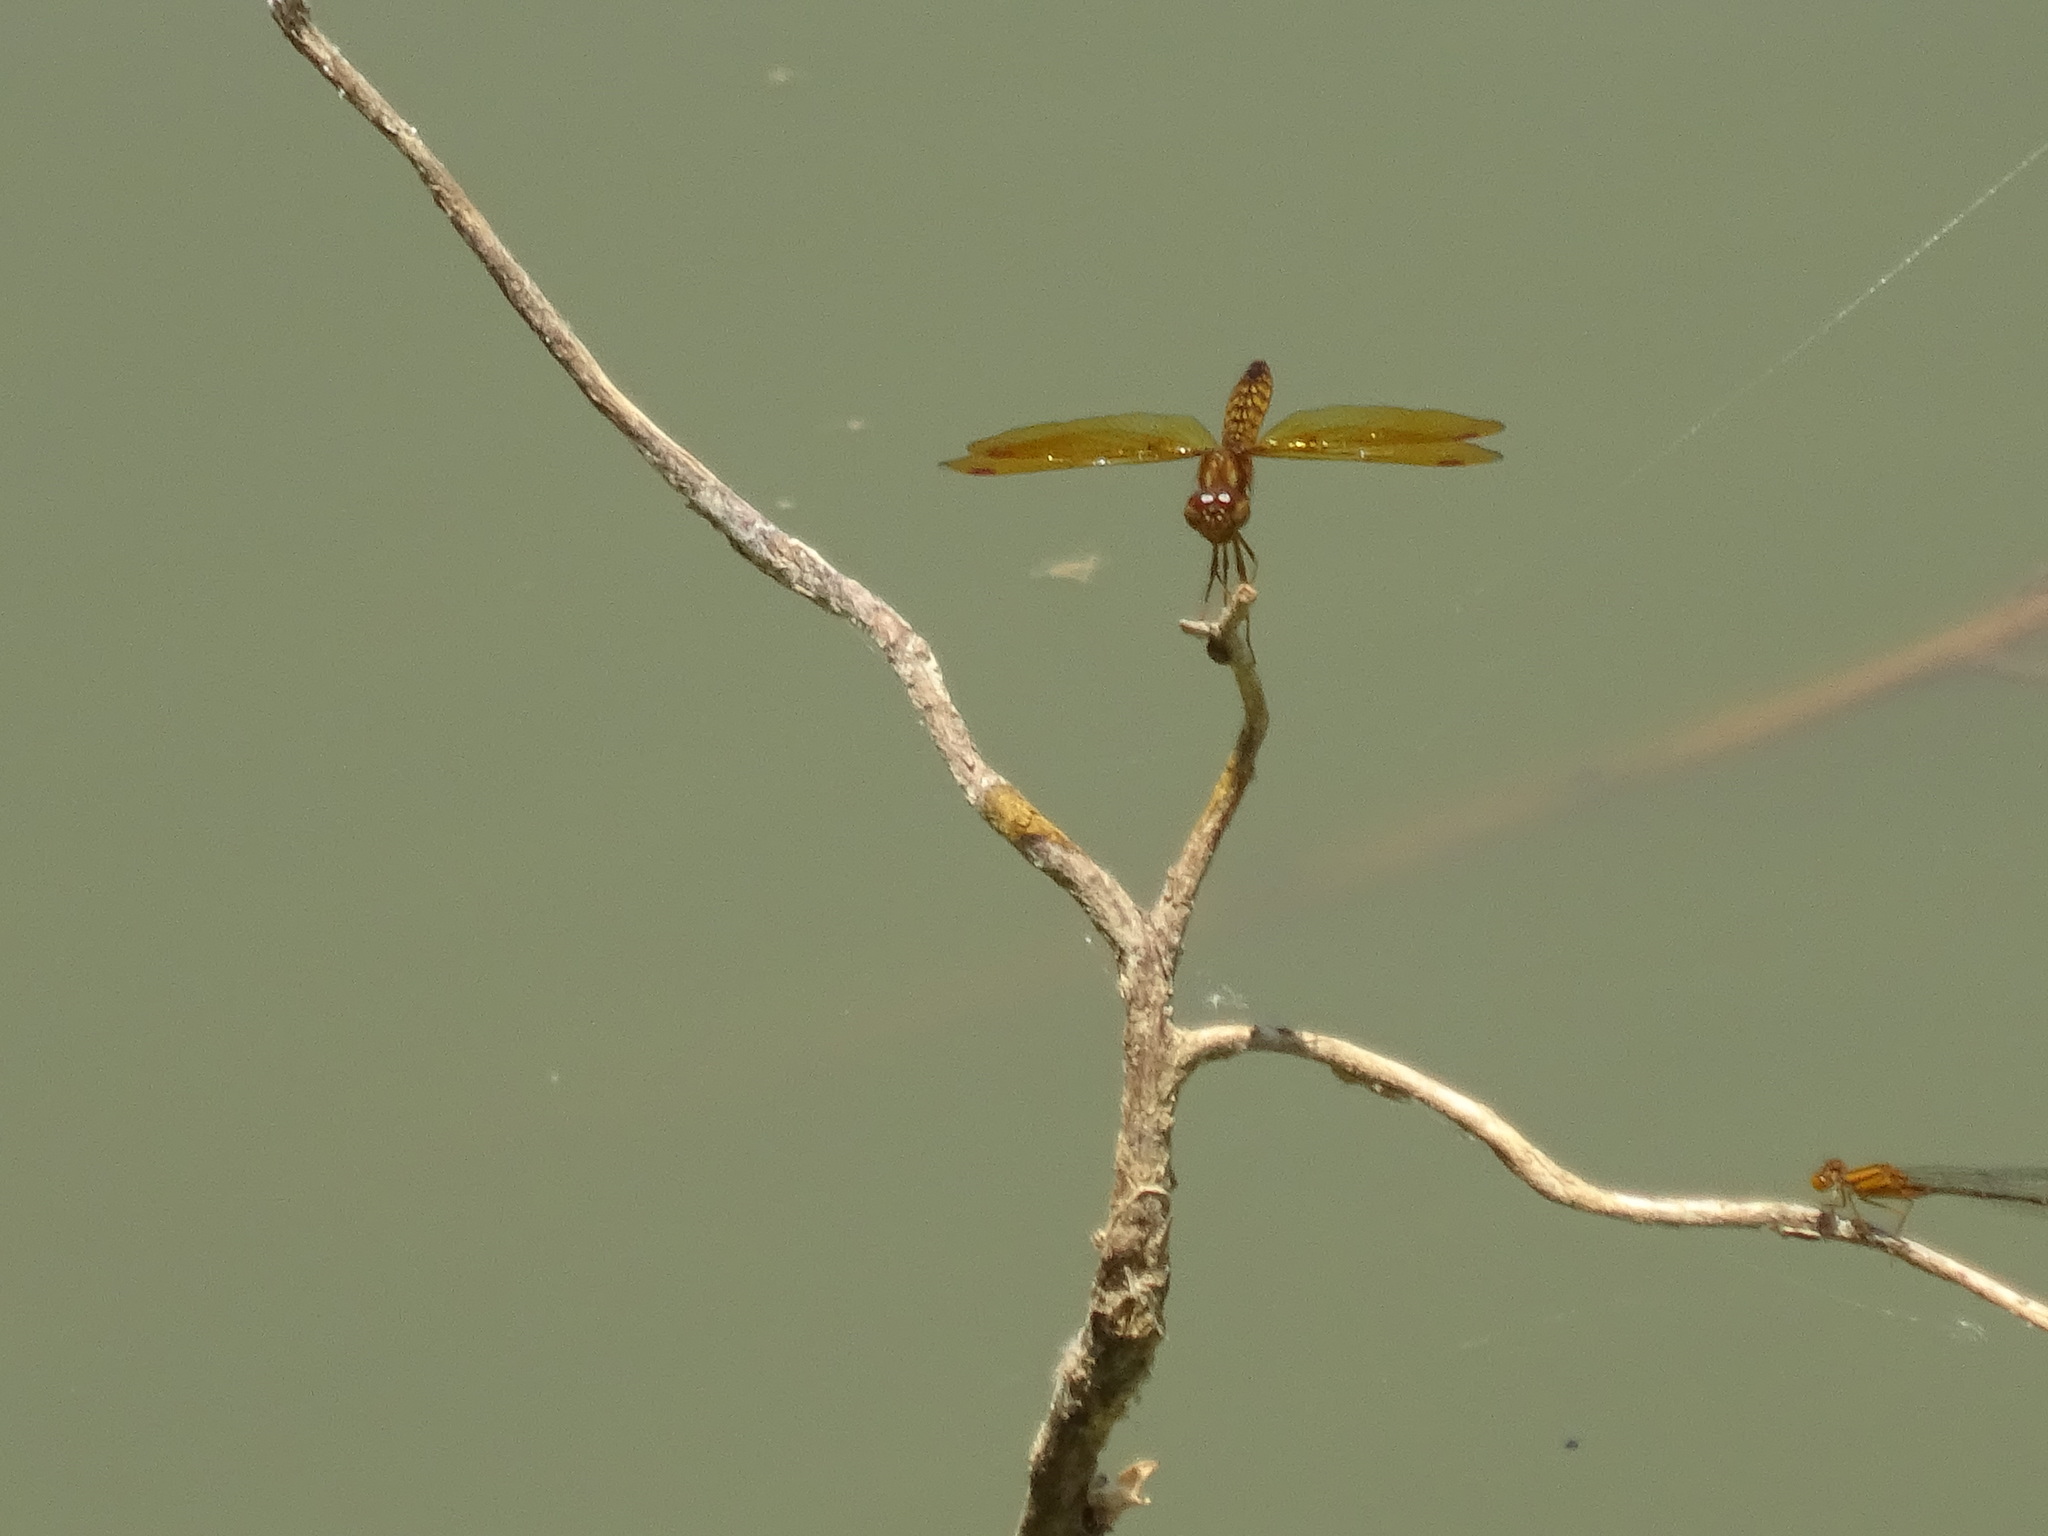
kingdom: Animalia
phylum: Arthropoda
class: Insecta
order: Odonata
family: Libellulidae
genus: Perithemis
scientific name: Perithemis tenera
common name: Eastern amberwing
